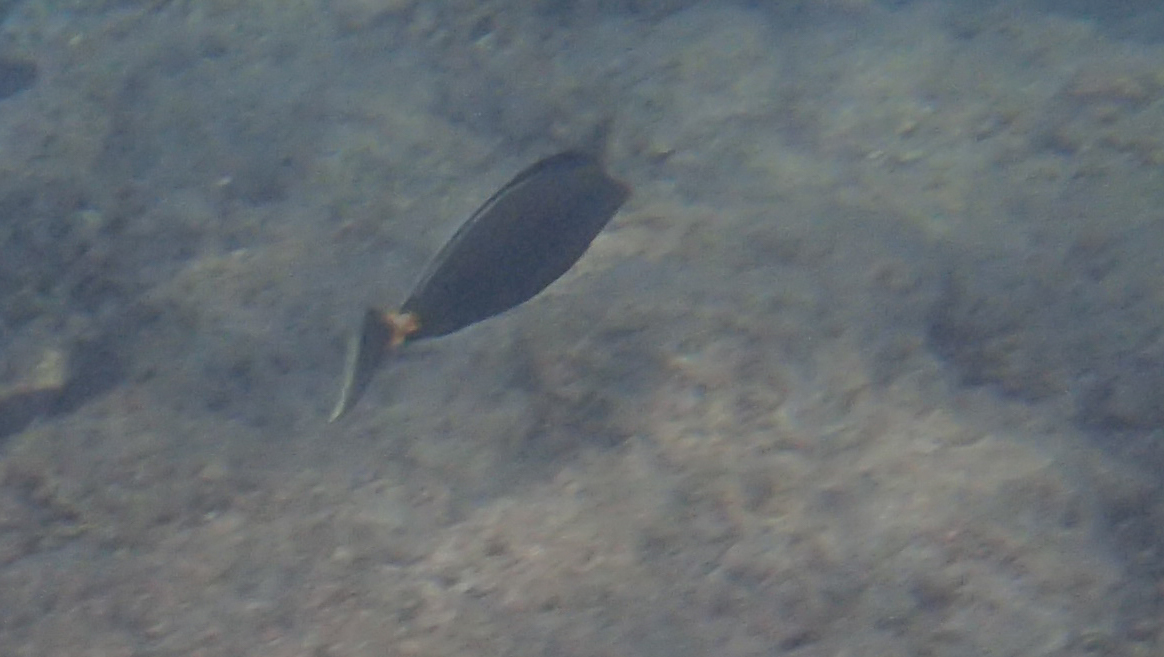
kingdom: Animalia
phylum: Chordata
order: Perciformes
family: Acanthuridae
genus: Naso
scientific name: Naso lituratus
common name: Orangespine unicornfish
